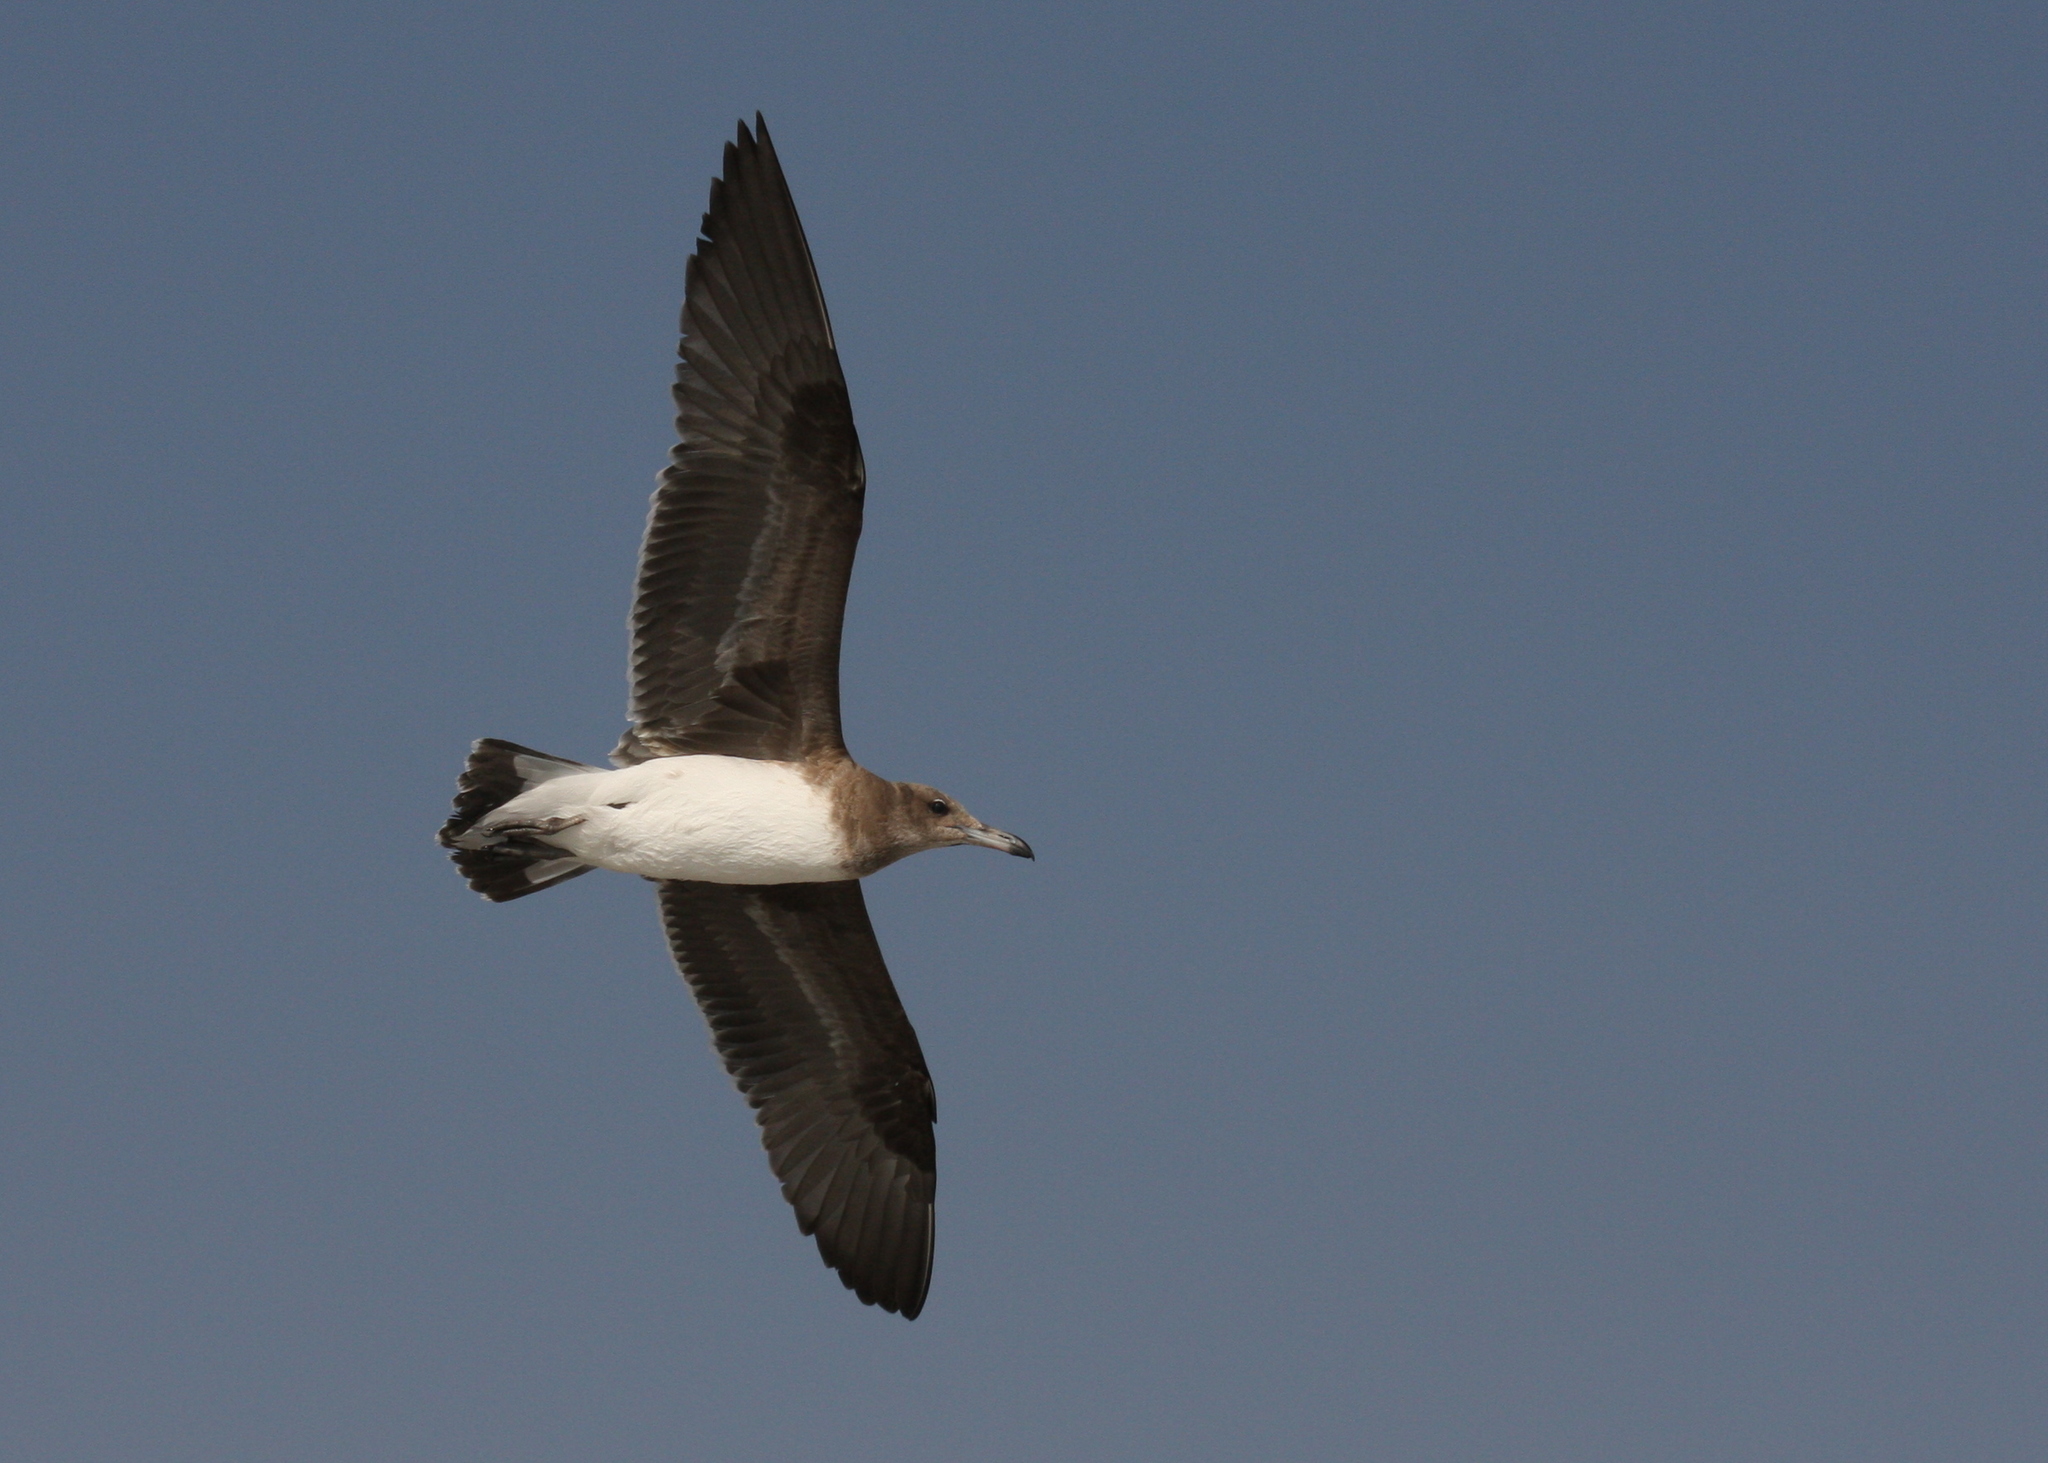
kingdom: Animalia
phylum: Chordata
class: Aves
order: Charadriiformes
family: Laridae
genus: Ichthyaetus
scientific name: Ichthyaetus hemprichii
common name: Sooty gull
